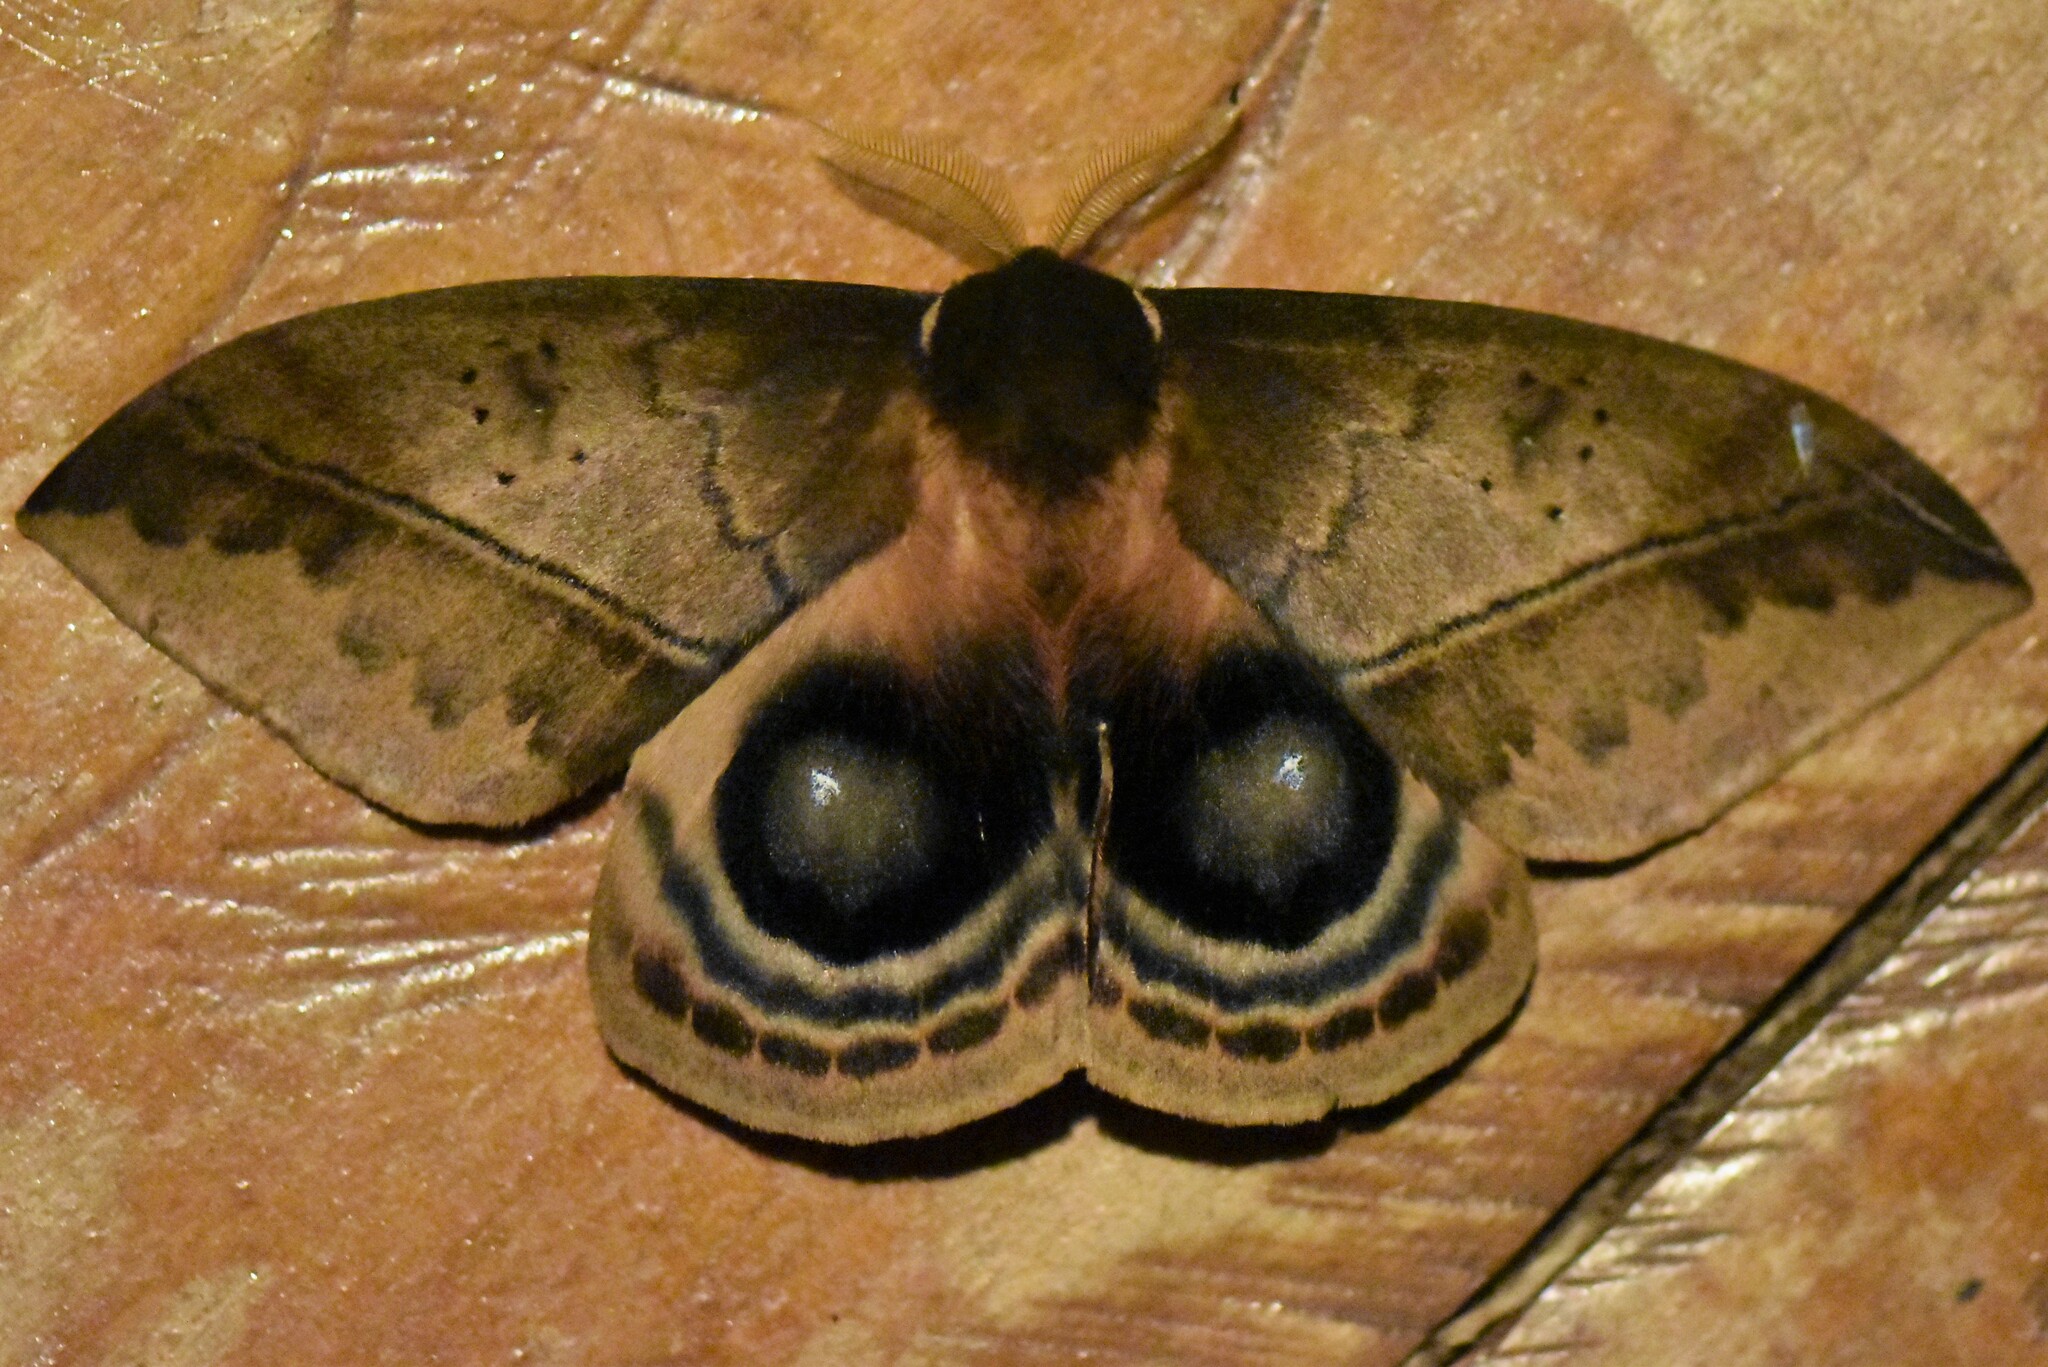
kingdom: Animalia
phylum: Arthropoda
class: Insecta
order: Lepidoptera
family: Saturniidae
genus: Automeris
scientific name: Automeris beckeri
